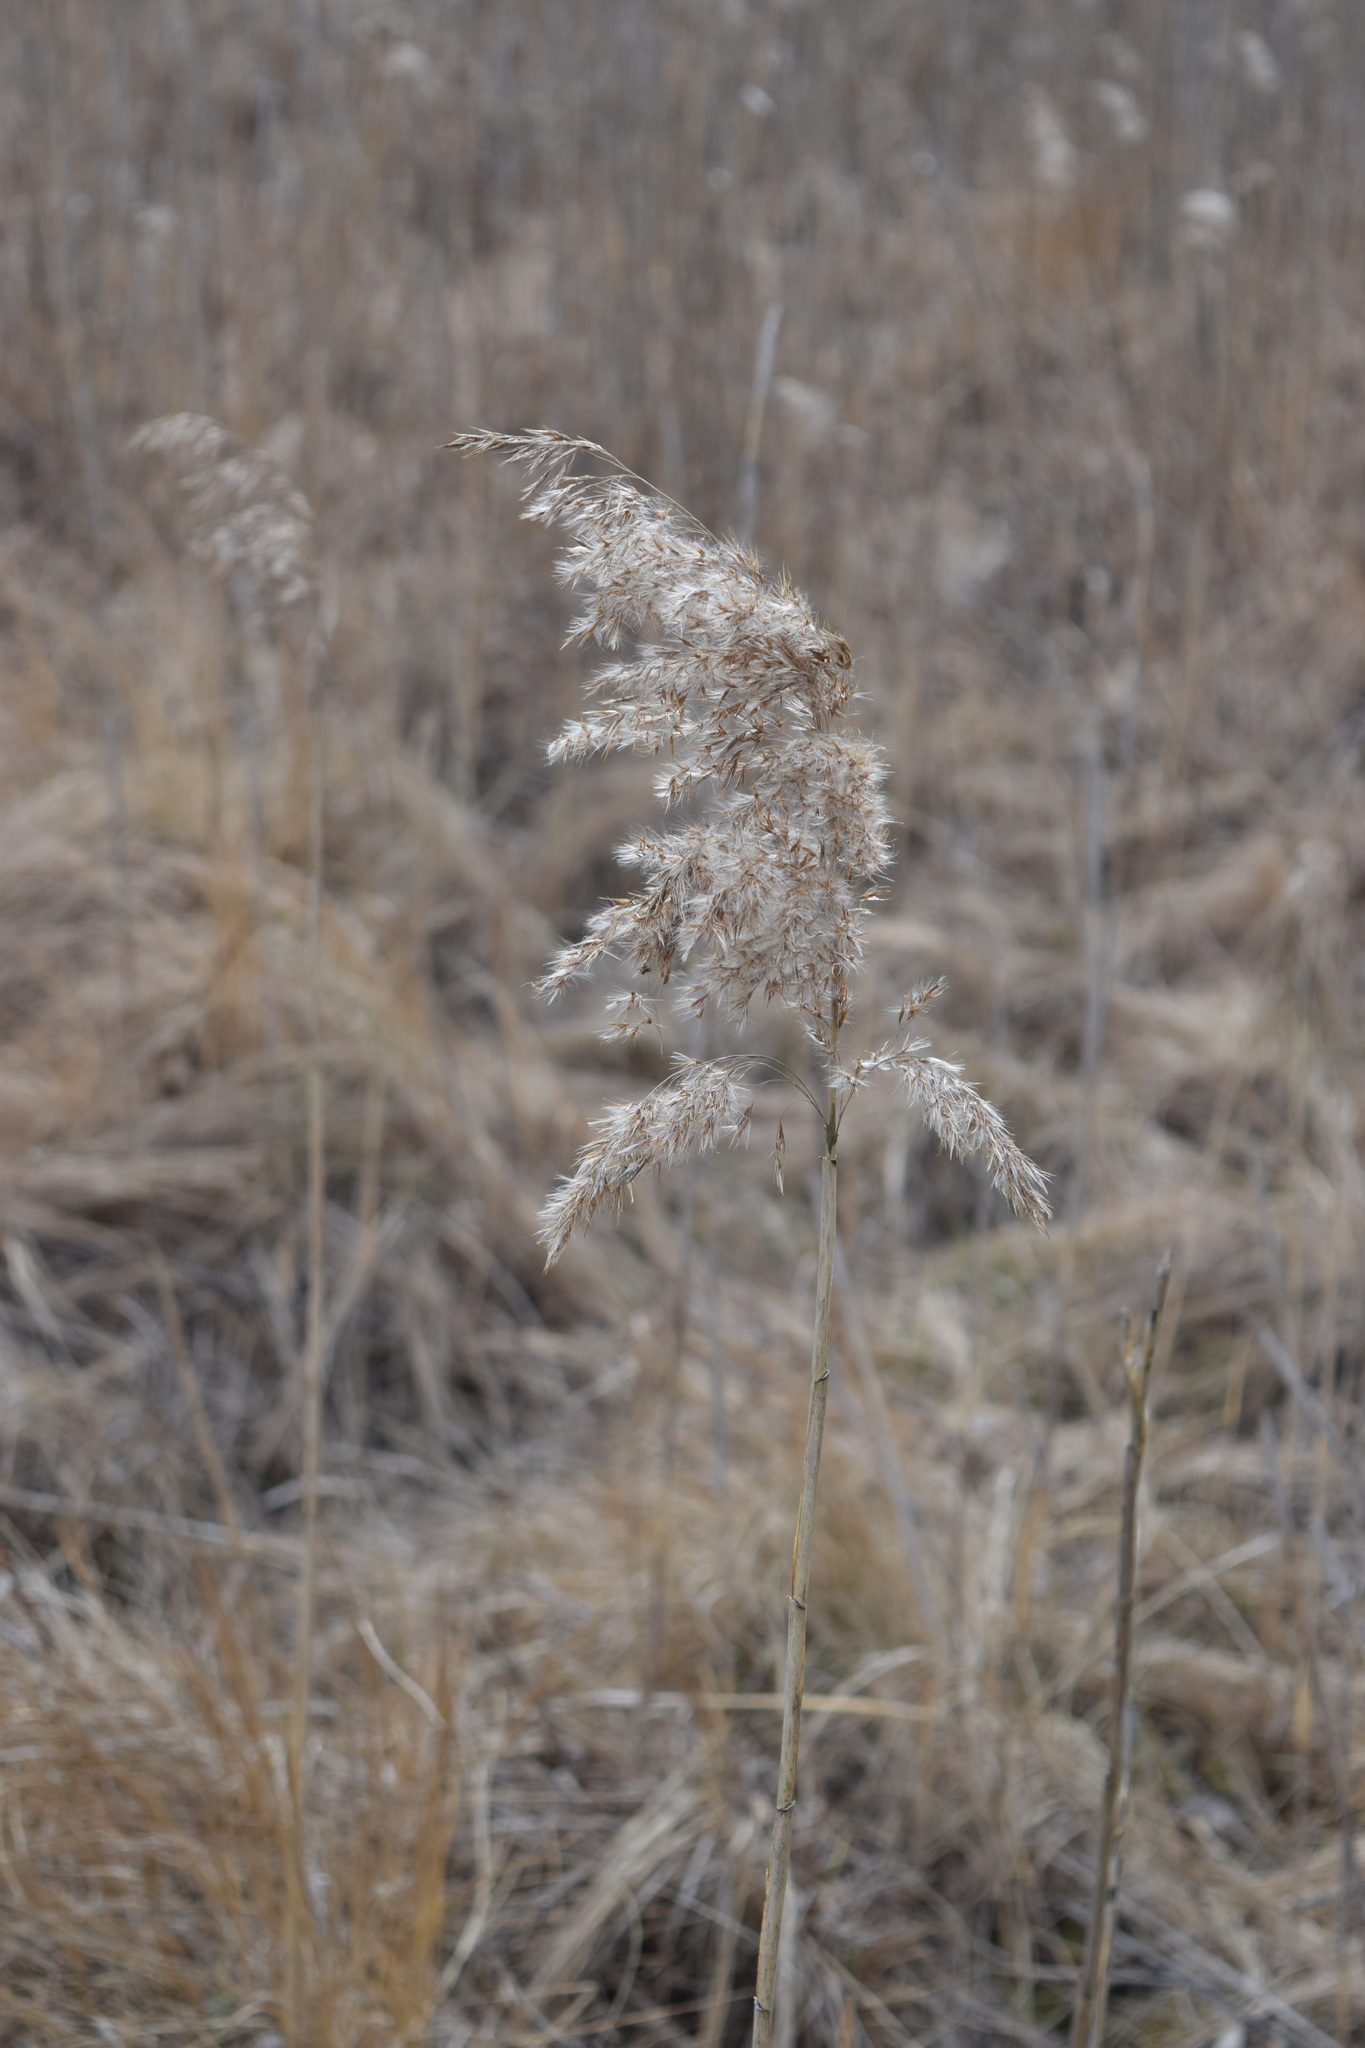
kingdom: Plantae
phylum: Tracheophyta
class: Liliopsida
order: Poales
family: Poaceae
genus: Phragmites
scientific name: Phragmites australis
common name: Common reed
